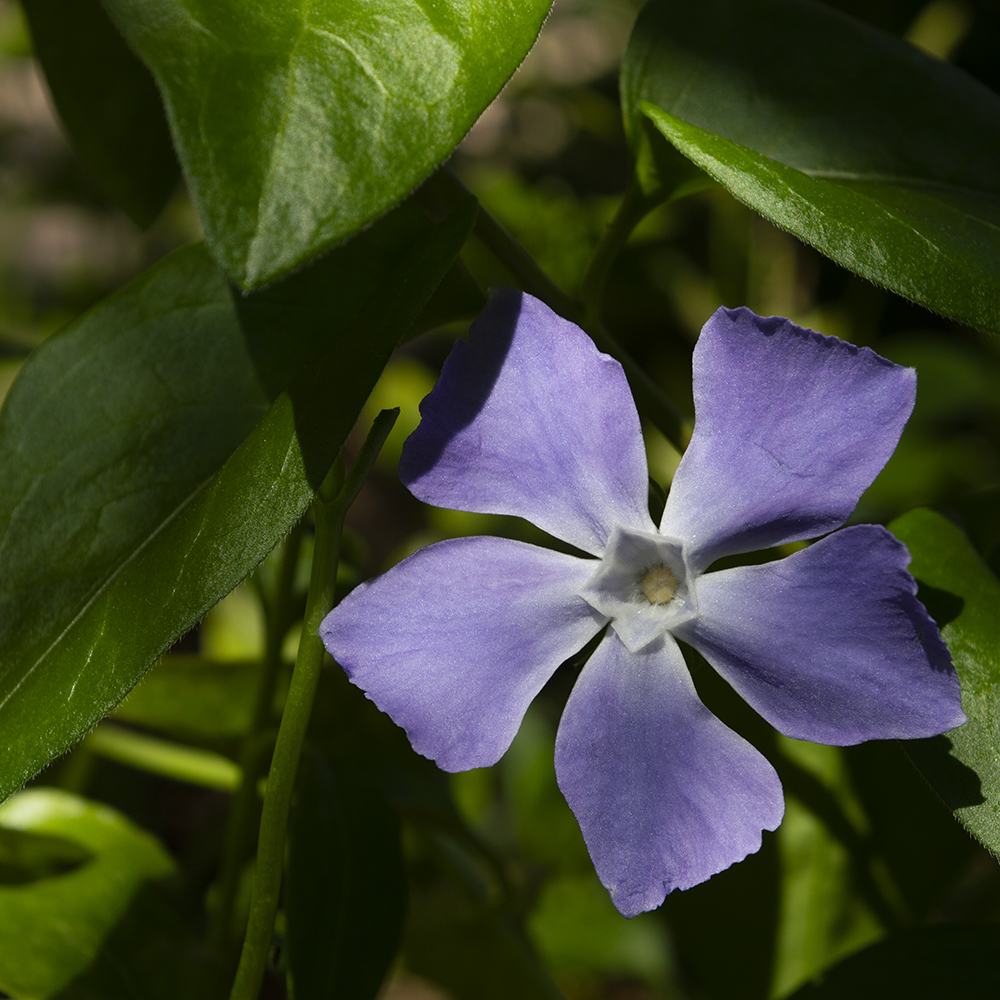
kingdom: Plantae
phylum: Tracheophyta
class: Magnoliopsida
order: Gentianales
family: Apocynaceae
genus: Vinca
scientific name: Vinca major
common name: Greater periwinkle
